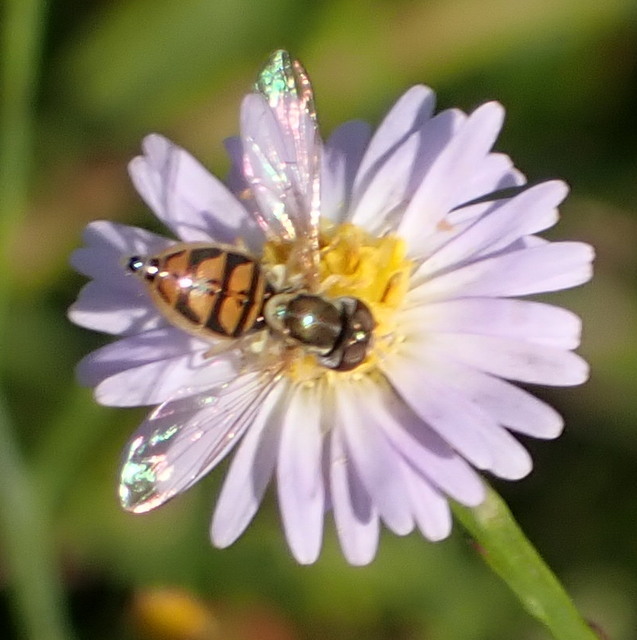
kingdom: Animalia
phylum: Arthropoda
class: Insecta
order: Diptera
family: Syrphidae
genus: Toxomerus
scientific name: Toxomerus marginatus
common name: Syrphid fly
